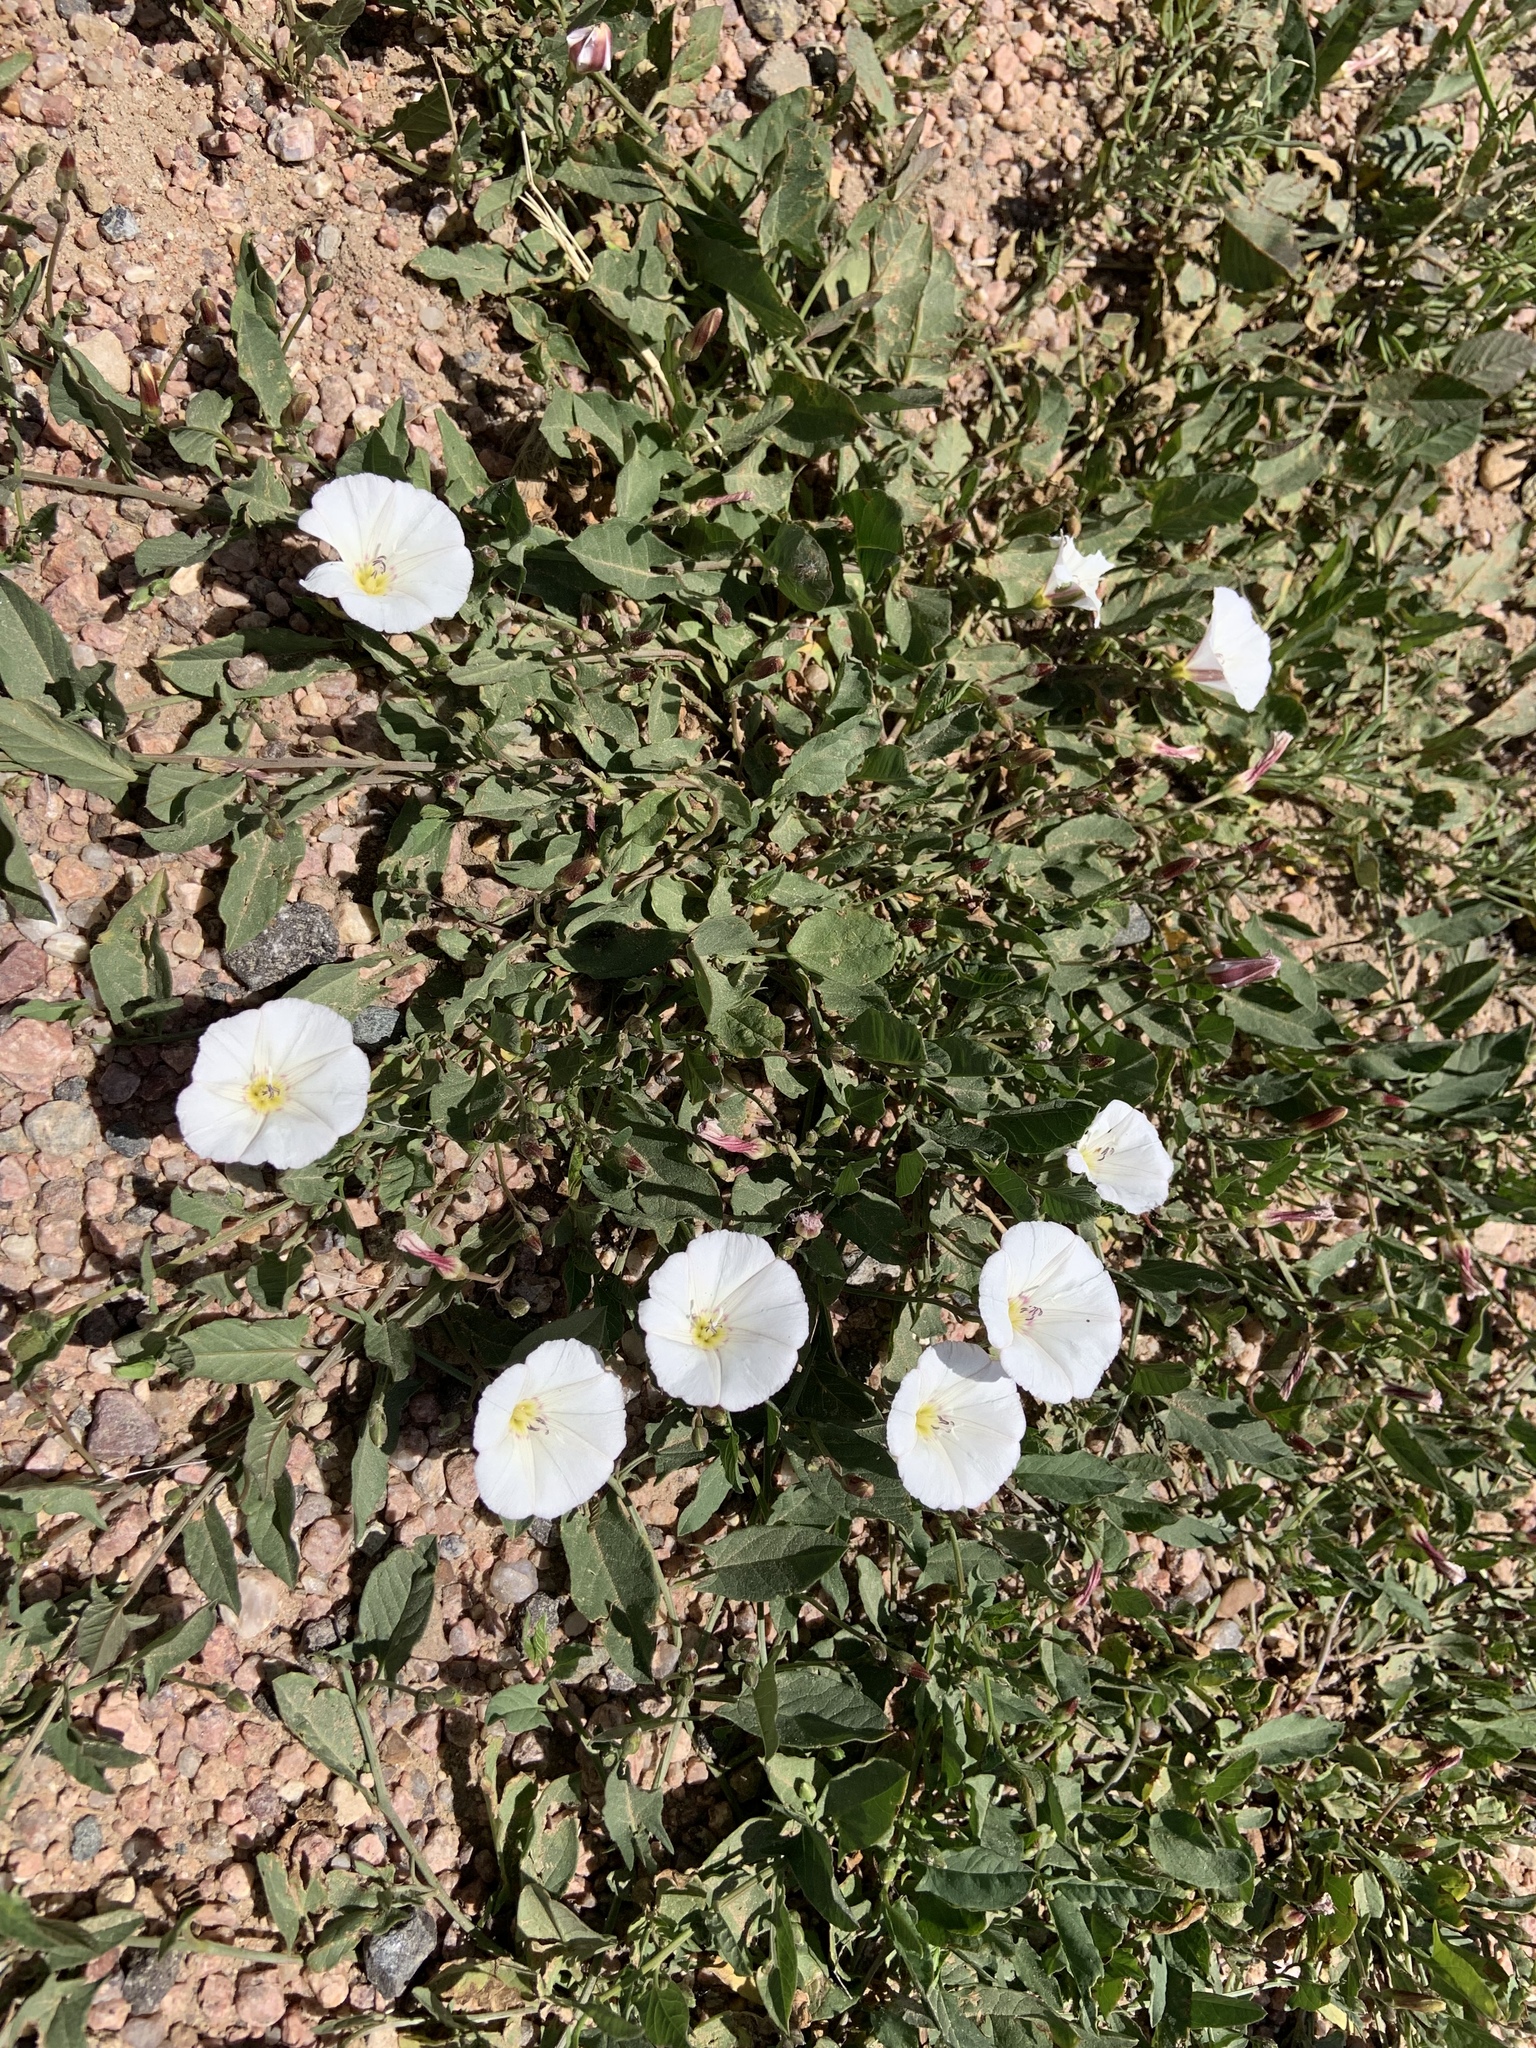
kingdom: Plantae
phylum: Tracheophyta
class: Magnoliopsida
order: Solanales
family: Convolvulaceae
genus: Convolvulus
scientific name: Convolvulus arvensis
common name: Field bindweed
